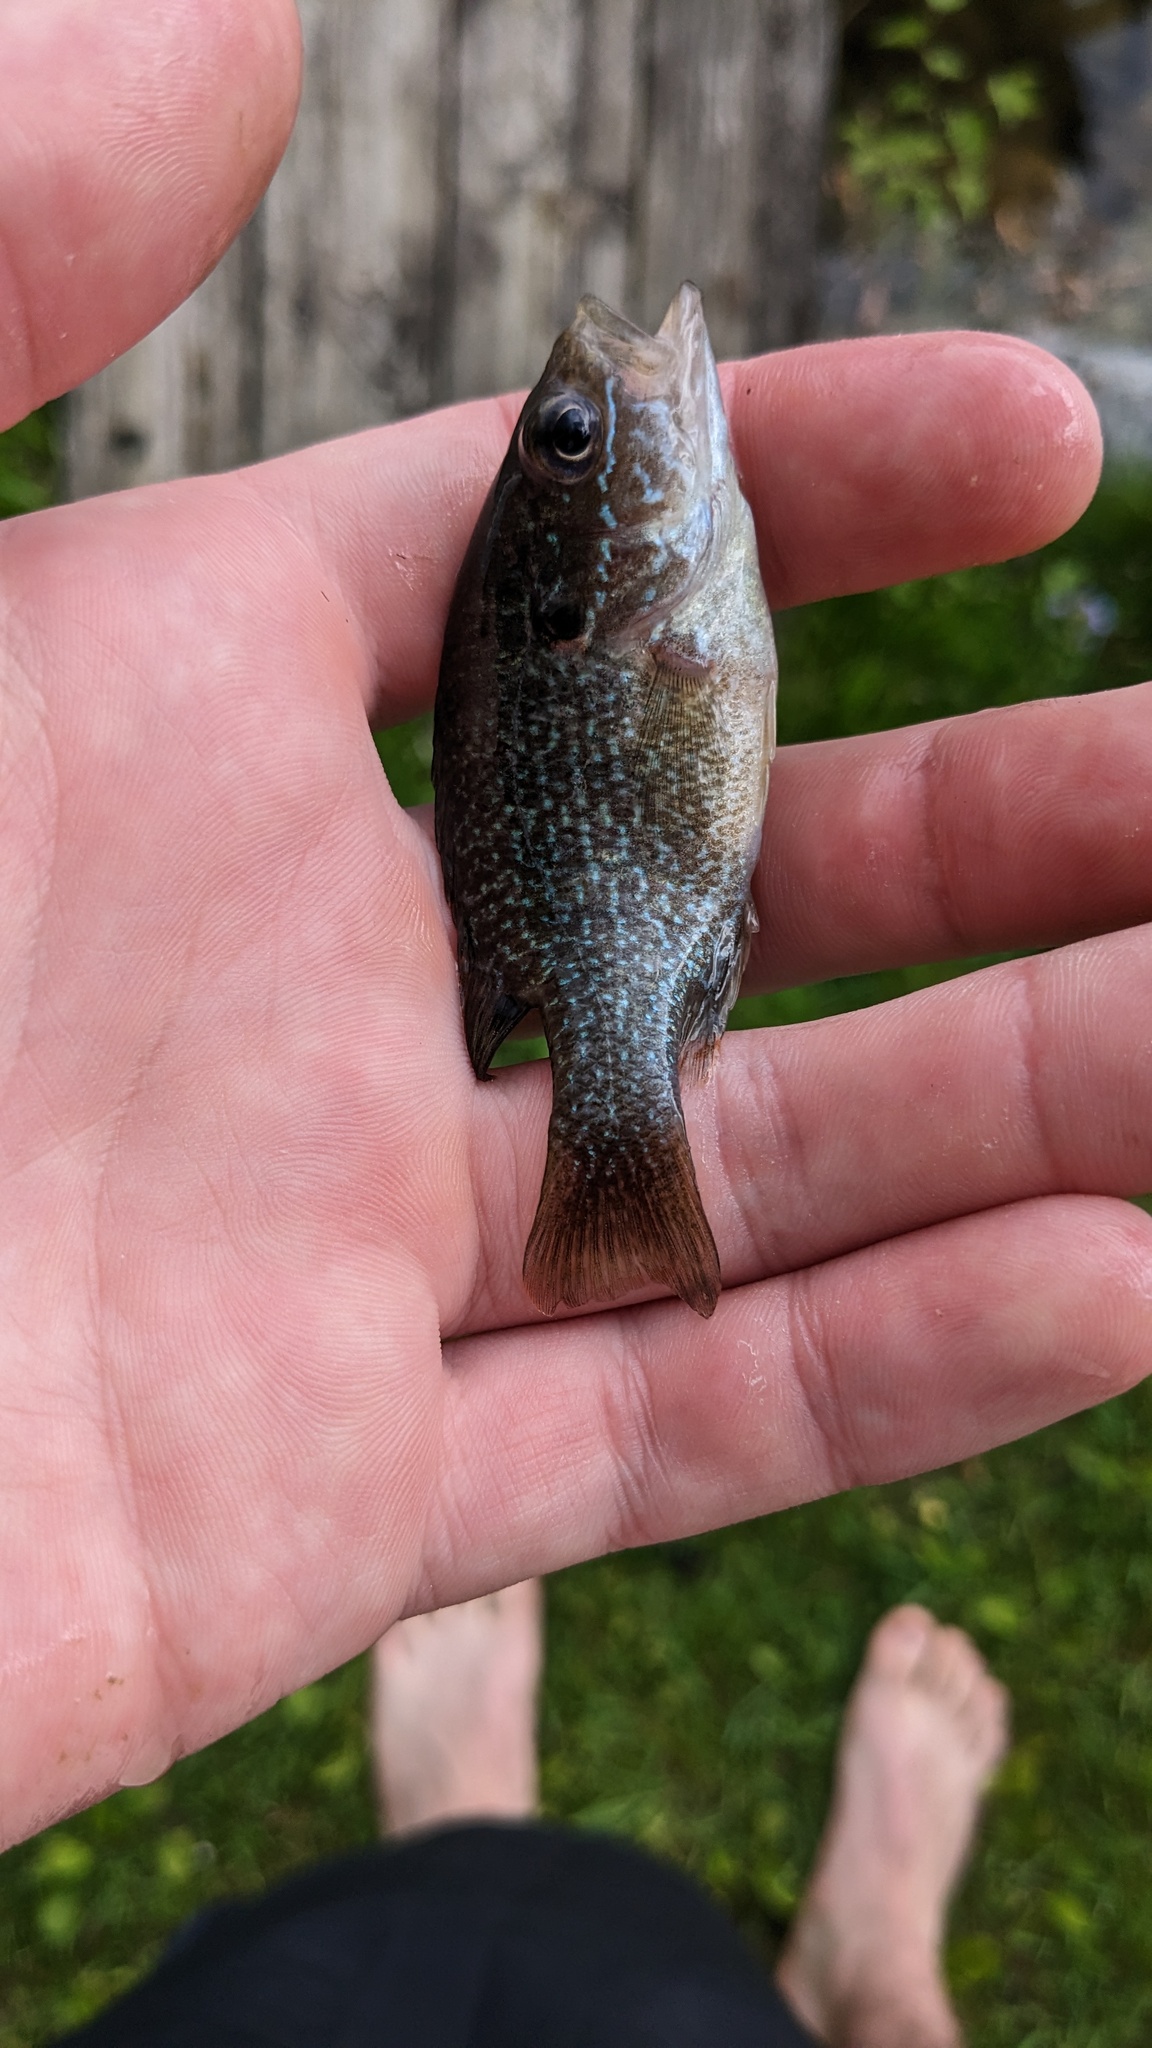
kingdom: Animalia
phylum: Chordata
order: Perciformes
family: Centrarchidae
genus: Lepomis
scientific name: Lepomis cyanellus
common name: Green sunfish
